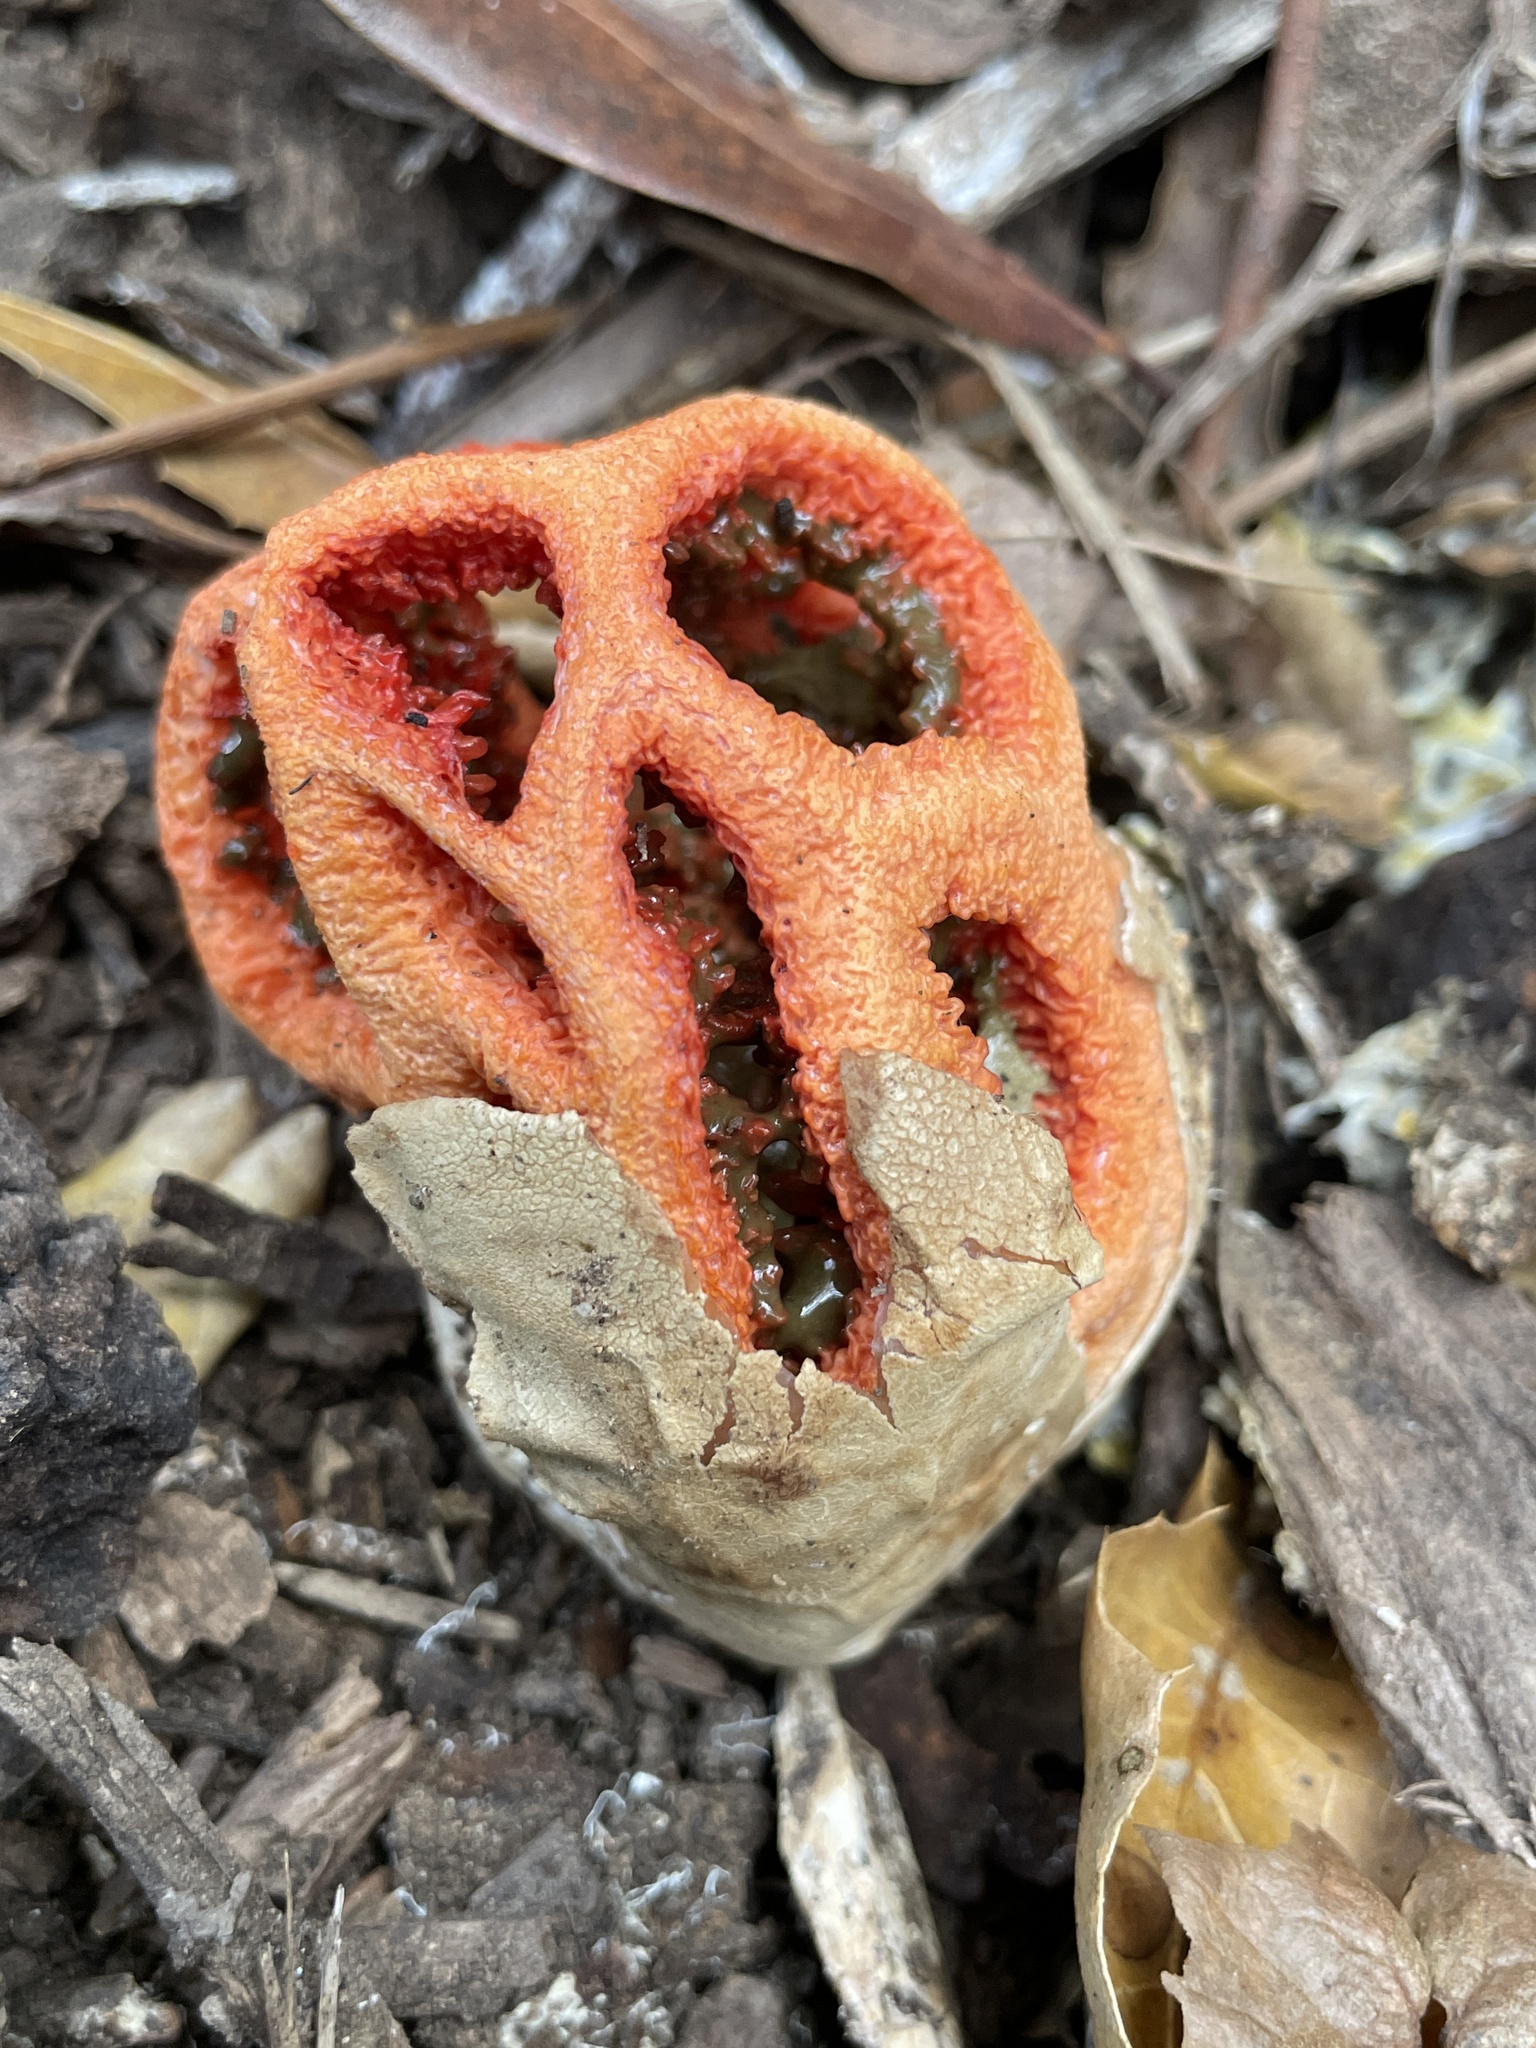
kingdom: Fungi
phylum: Basidiomycota
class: Agaricomycetes
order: Phallales
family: Phallaceae
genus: Clathrus
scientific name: Clathrus ruber
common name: Red cage
